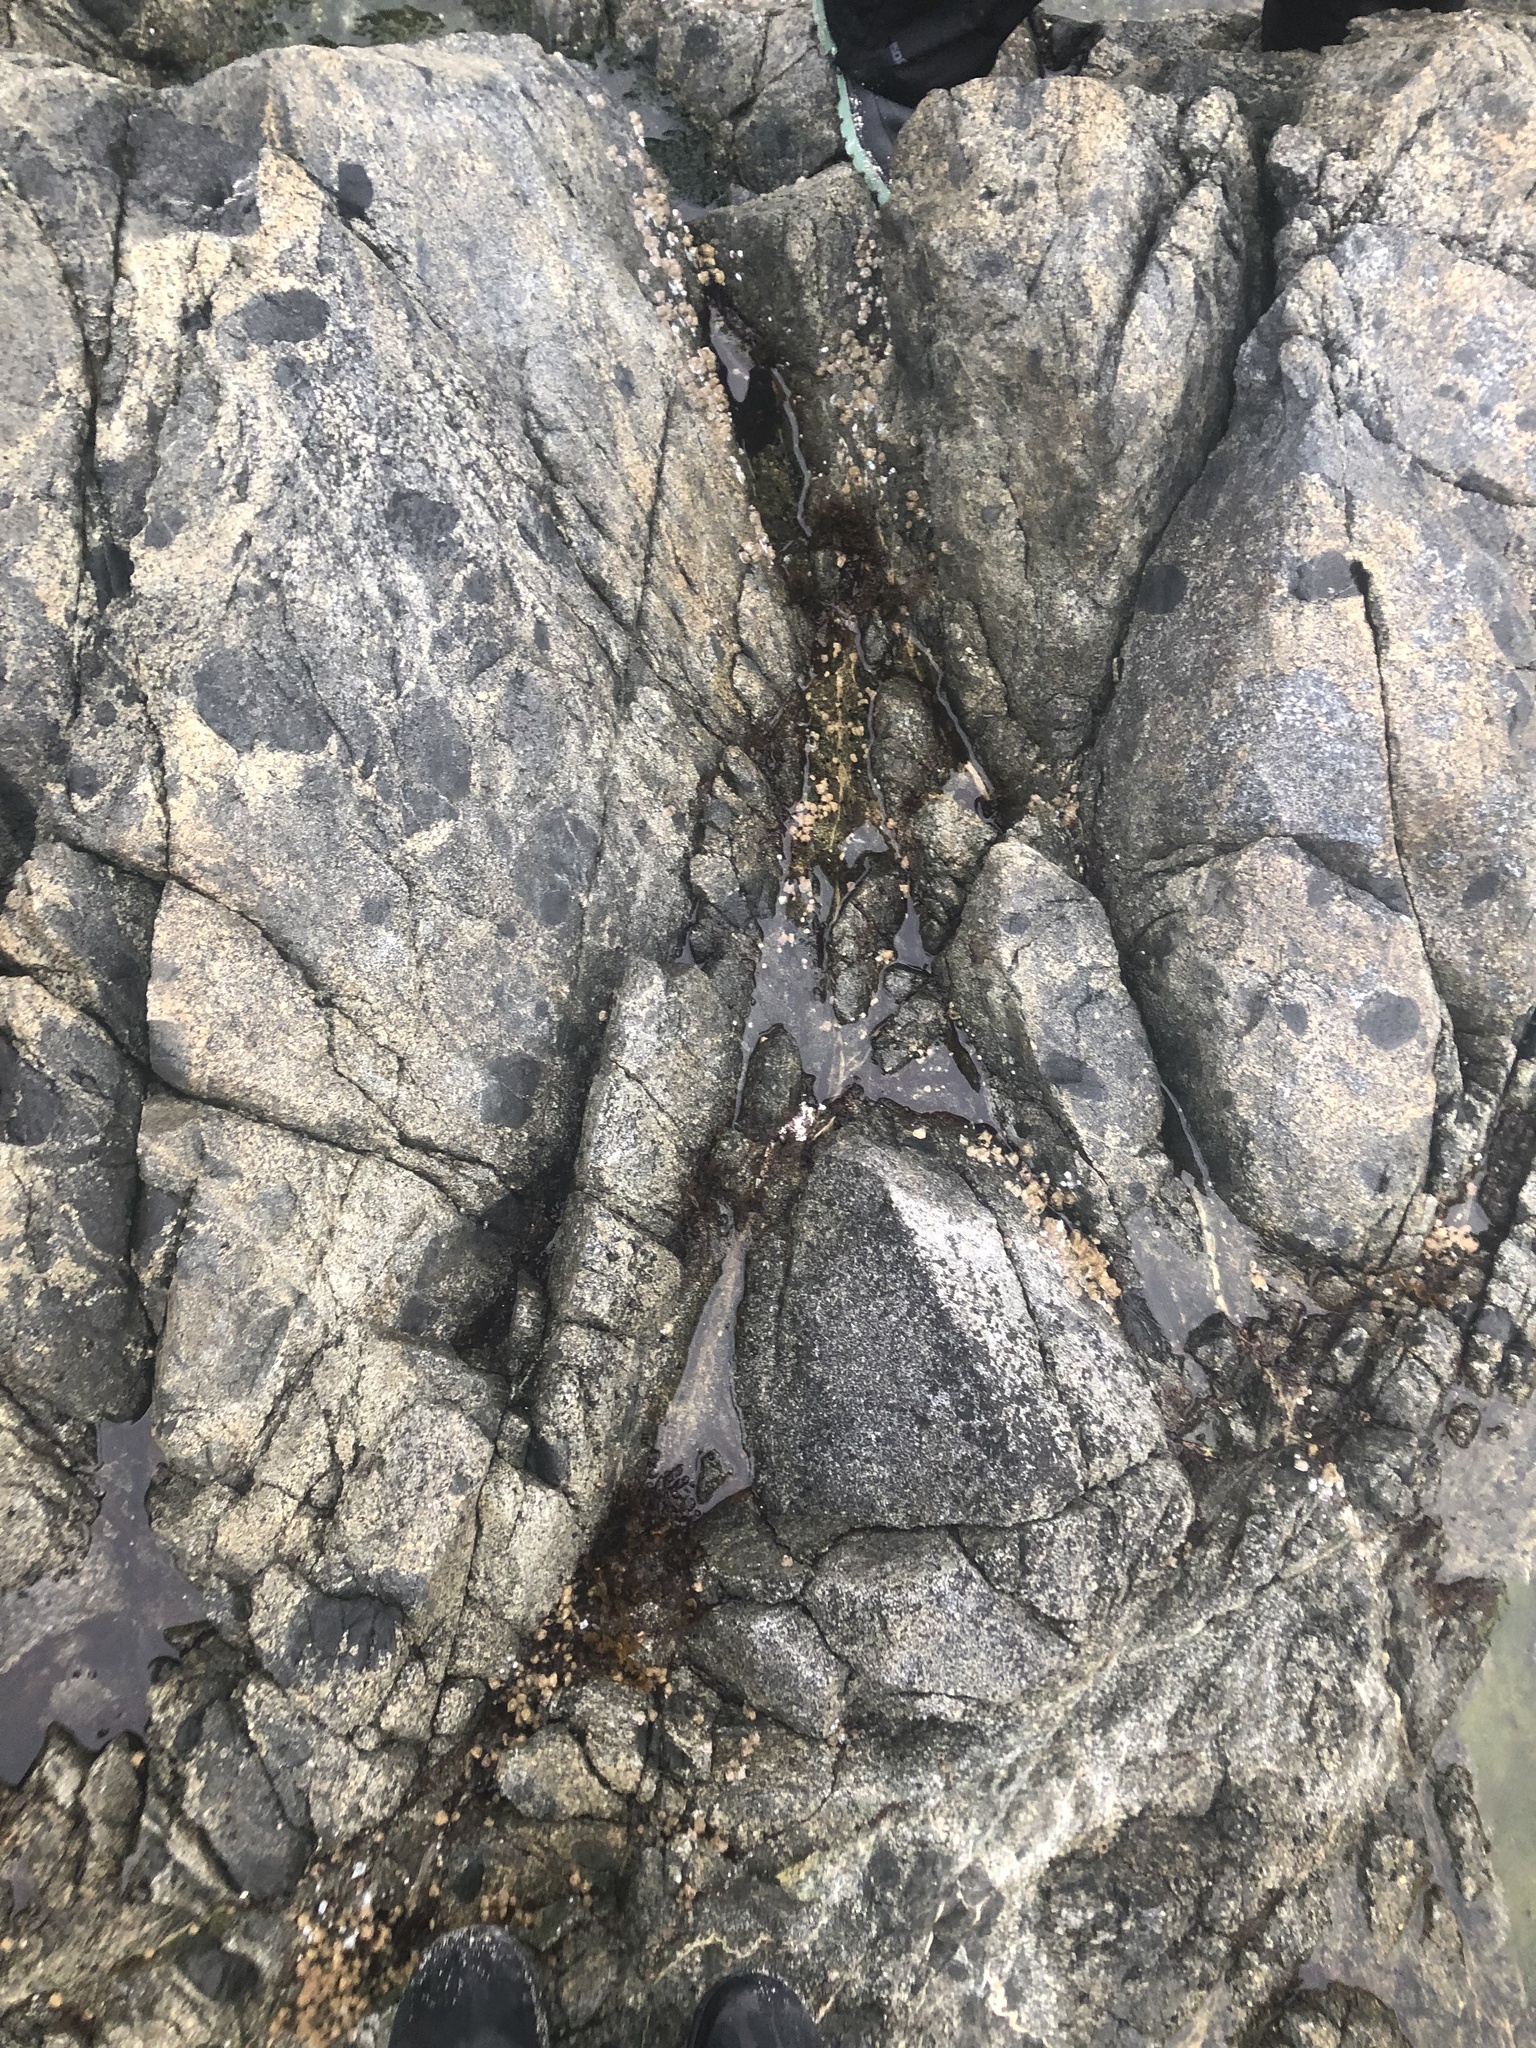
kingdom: Plantae
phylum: Rhodophyta
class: Florideophyceae
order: Corallinales
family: Corallinaceae
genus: Chamberlainium
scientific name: Chamberlainium tumidum
